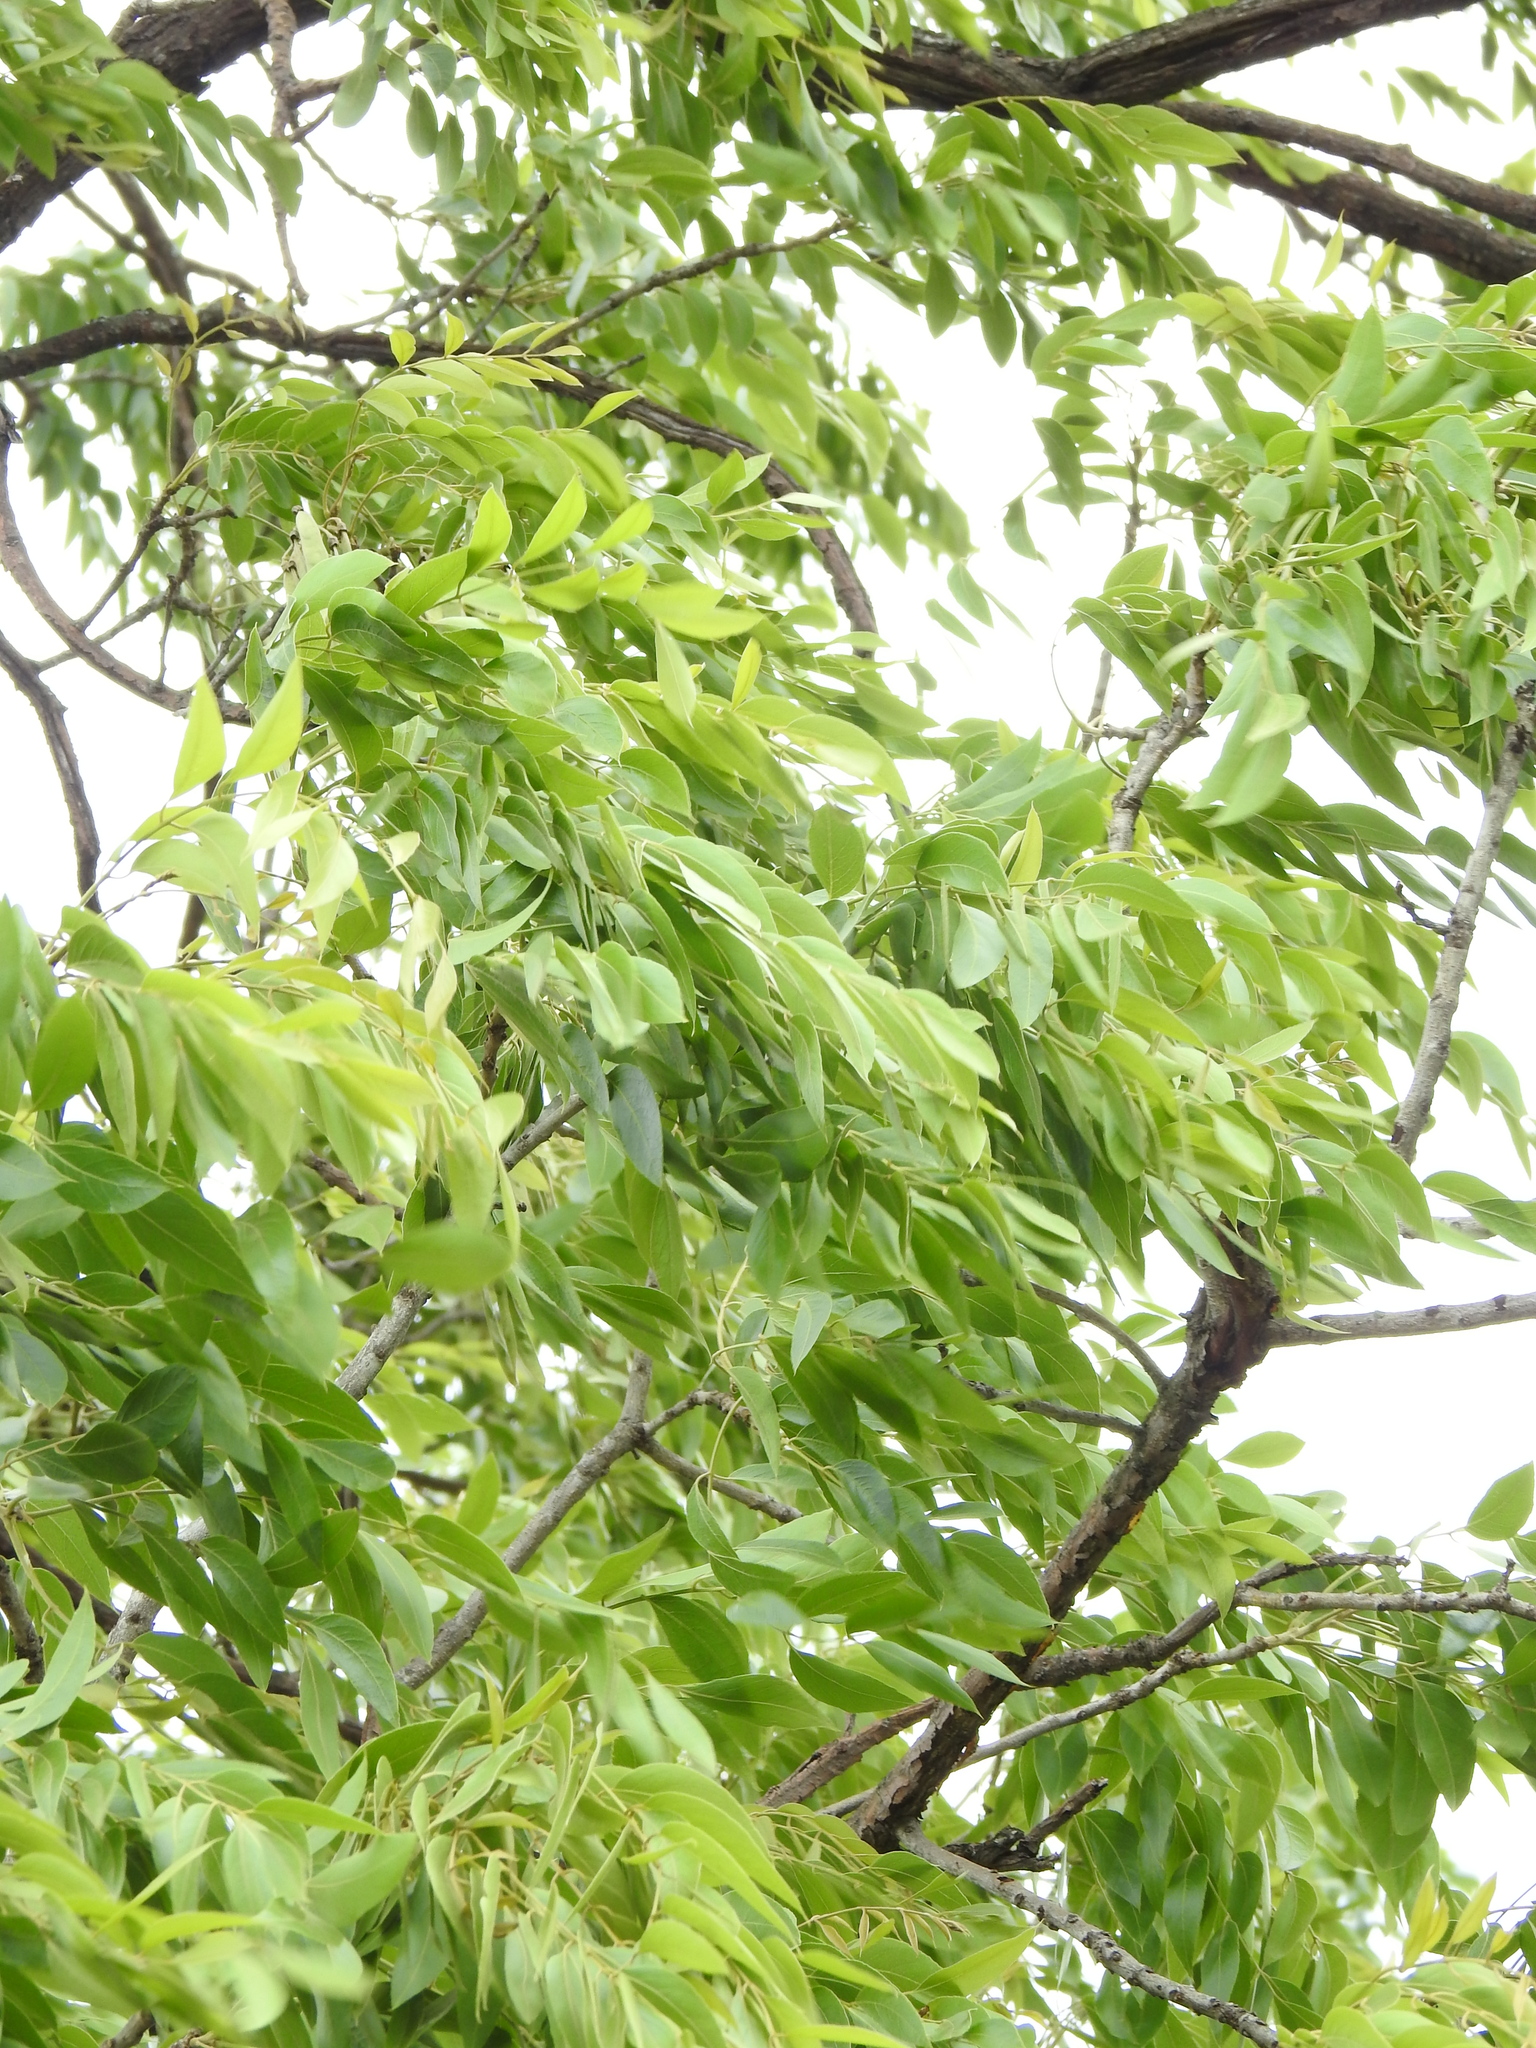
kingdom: Plantae
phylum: Tracheophyta
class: Magnoliopsida
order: Fabales
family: Fabaceae
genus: Bolusanthus
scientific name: Bolusanthus speciosus
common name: Tree wisteria
